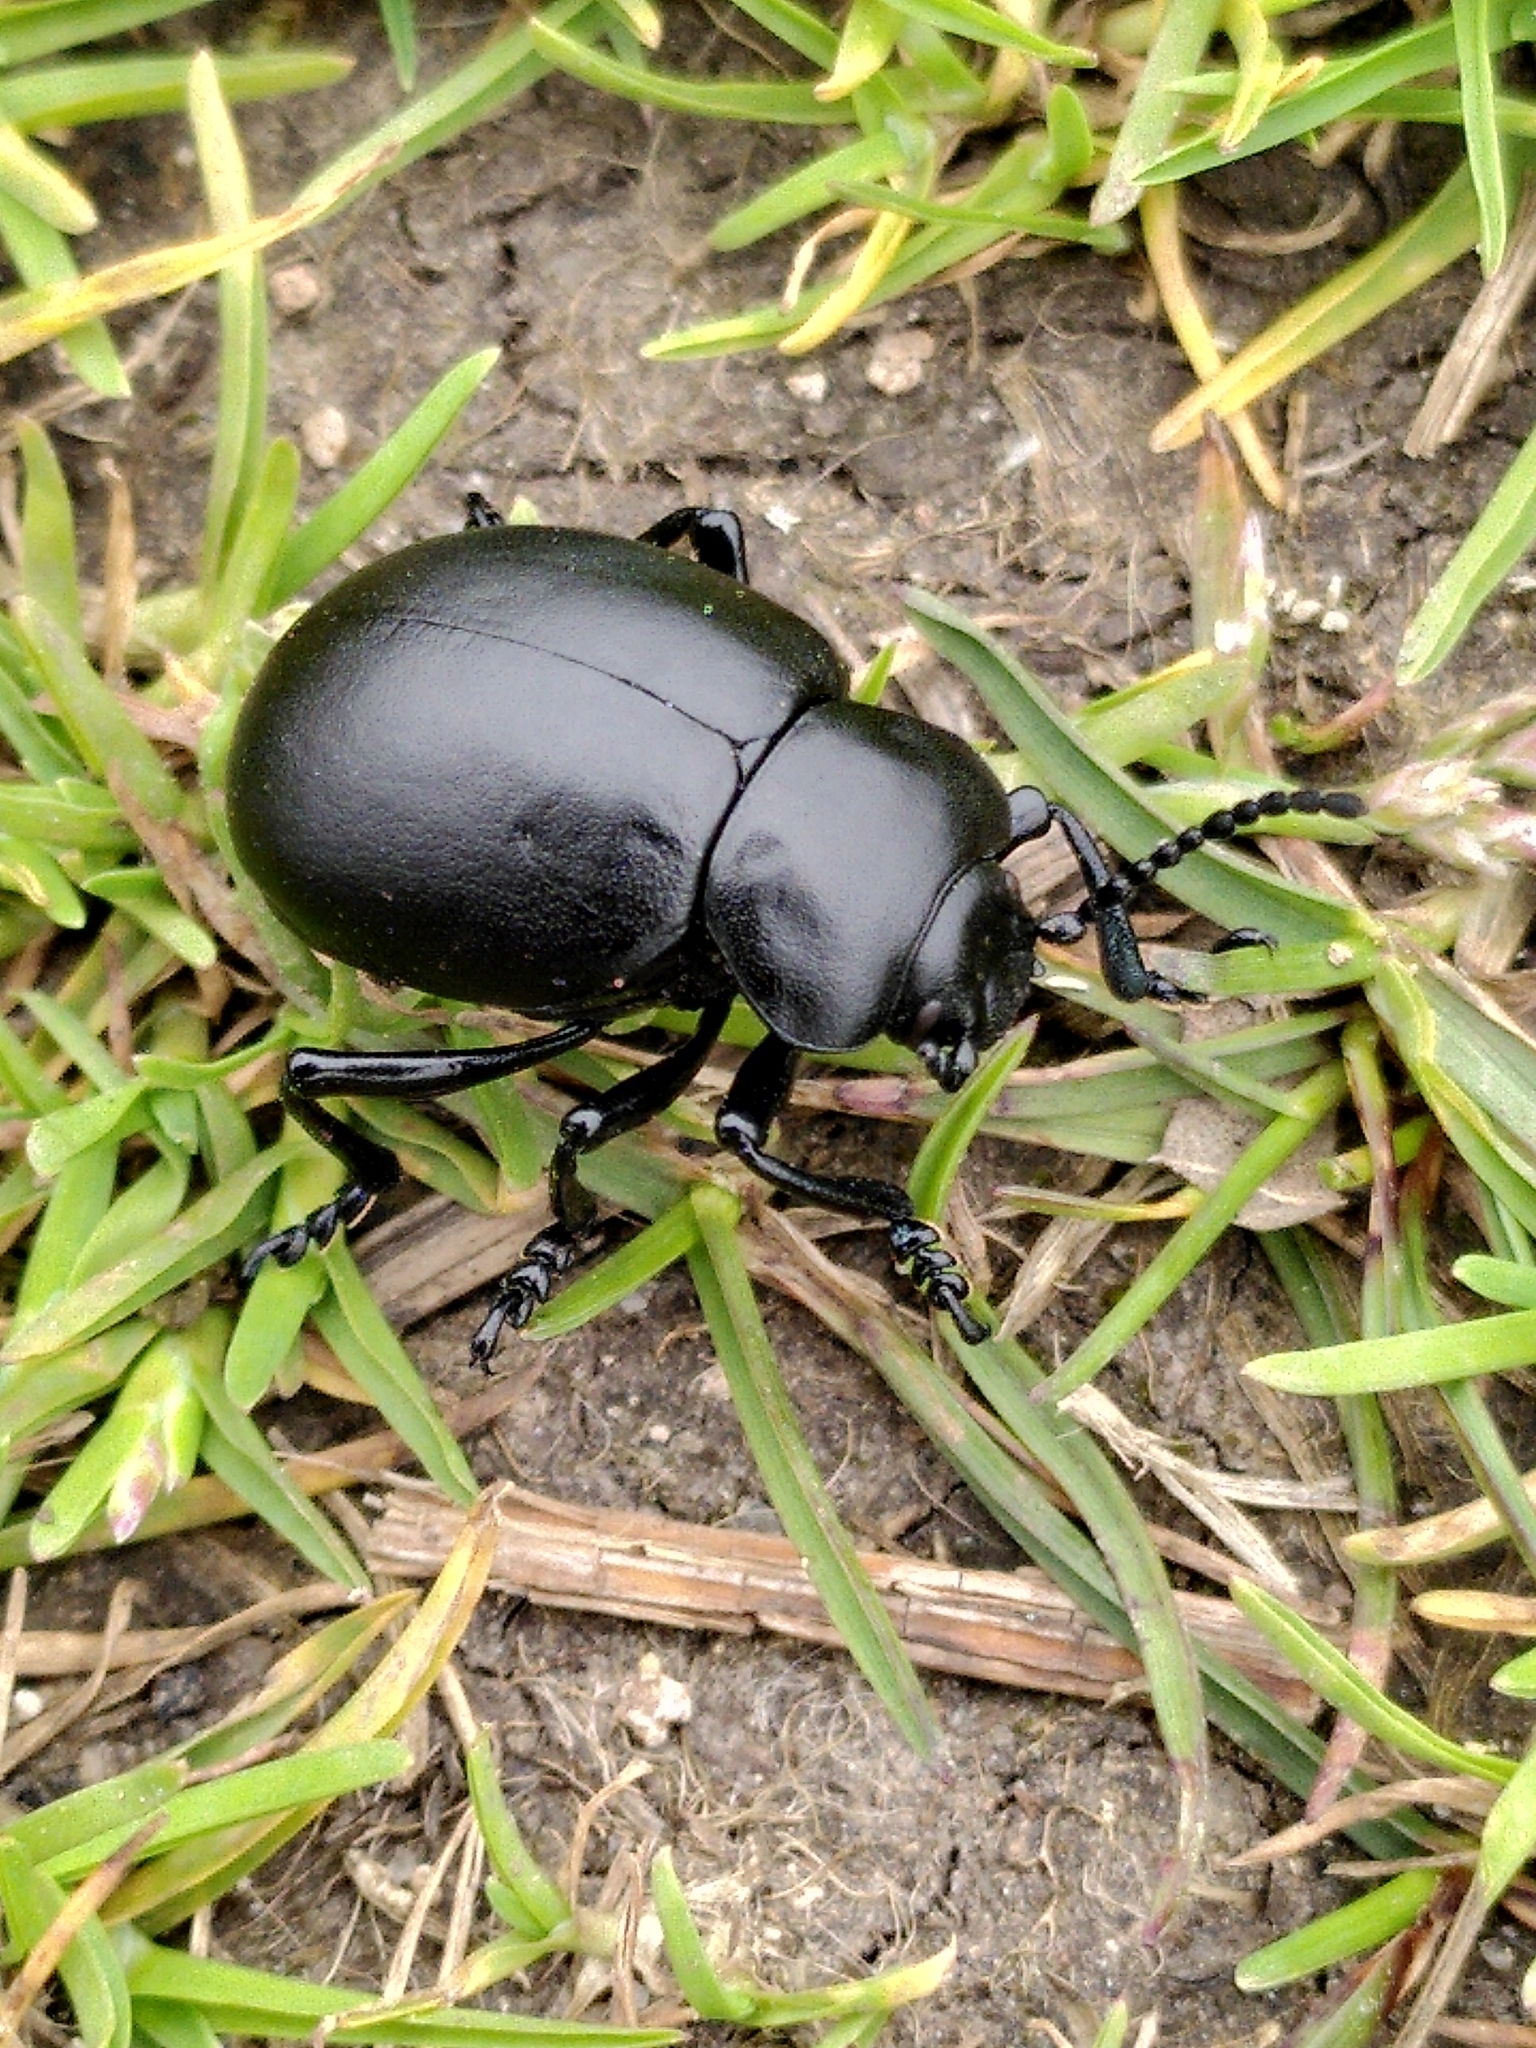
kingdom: Animalia
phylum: Arthropoda
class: Insecta
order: Coleoptera
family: Chrysomelidae
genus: Timarcha
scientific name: Timarcha tenebricosa
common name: Bloody-nosed beetle
